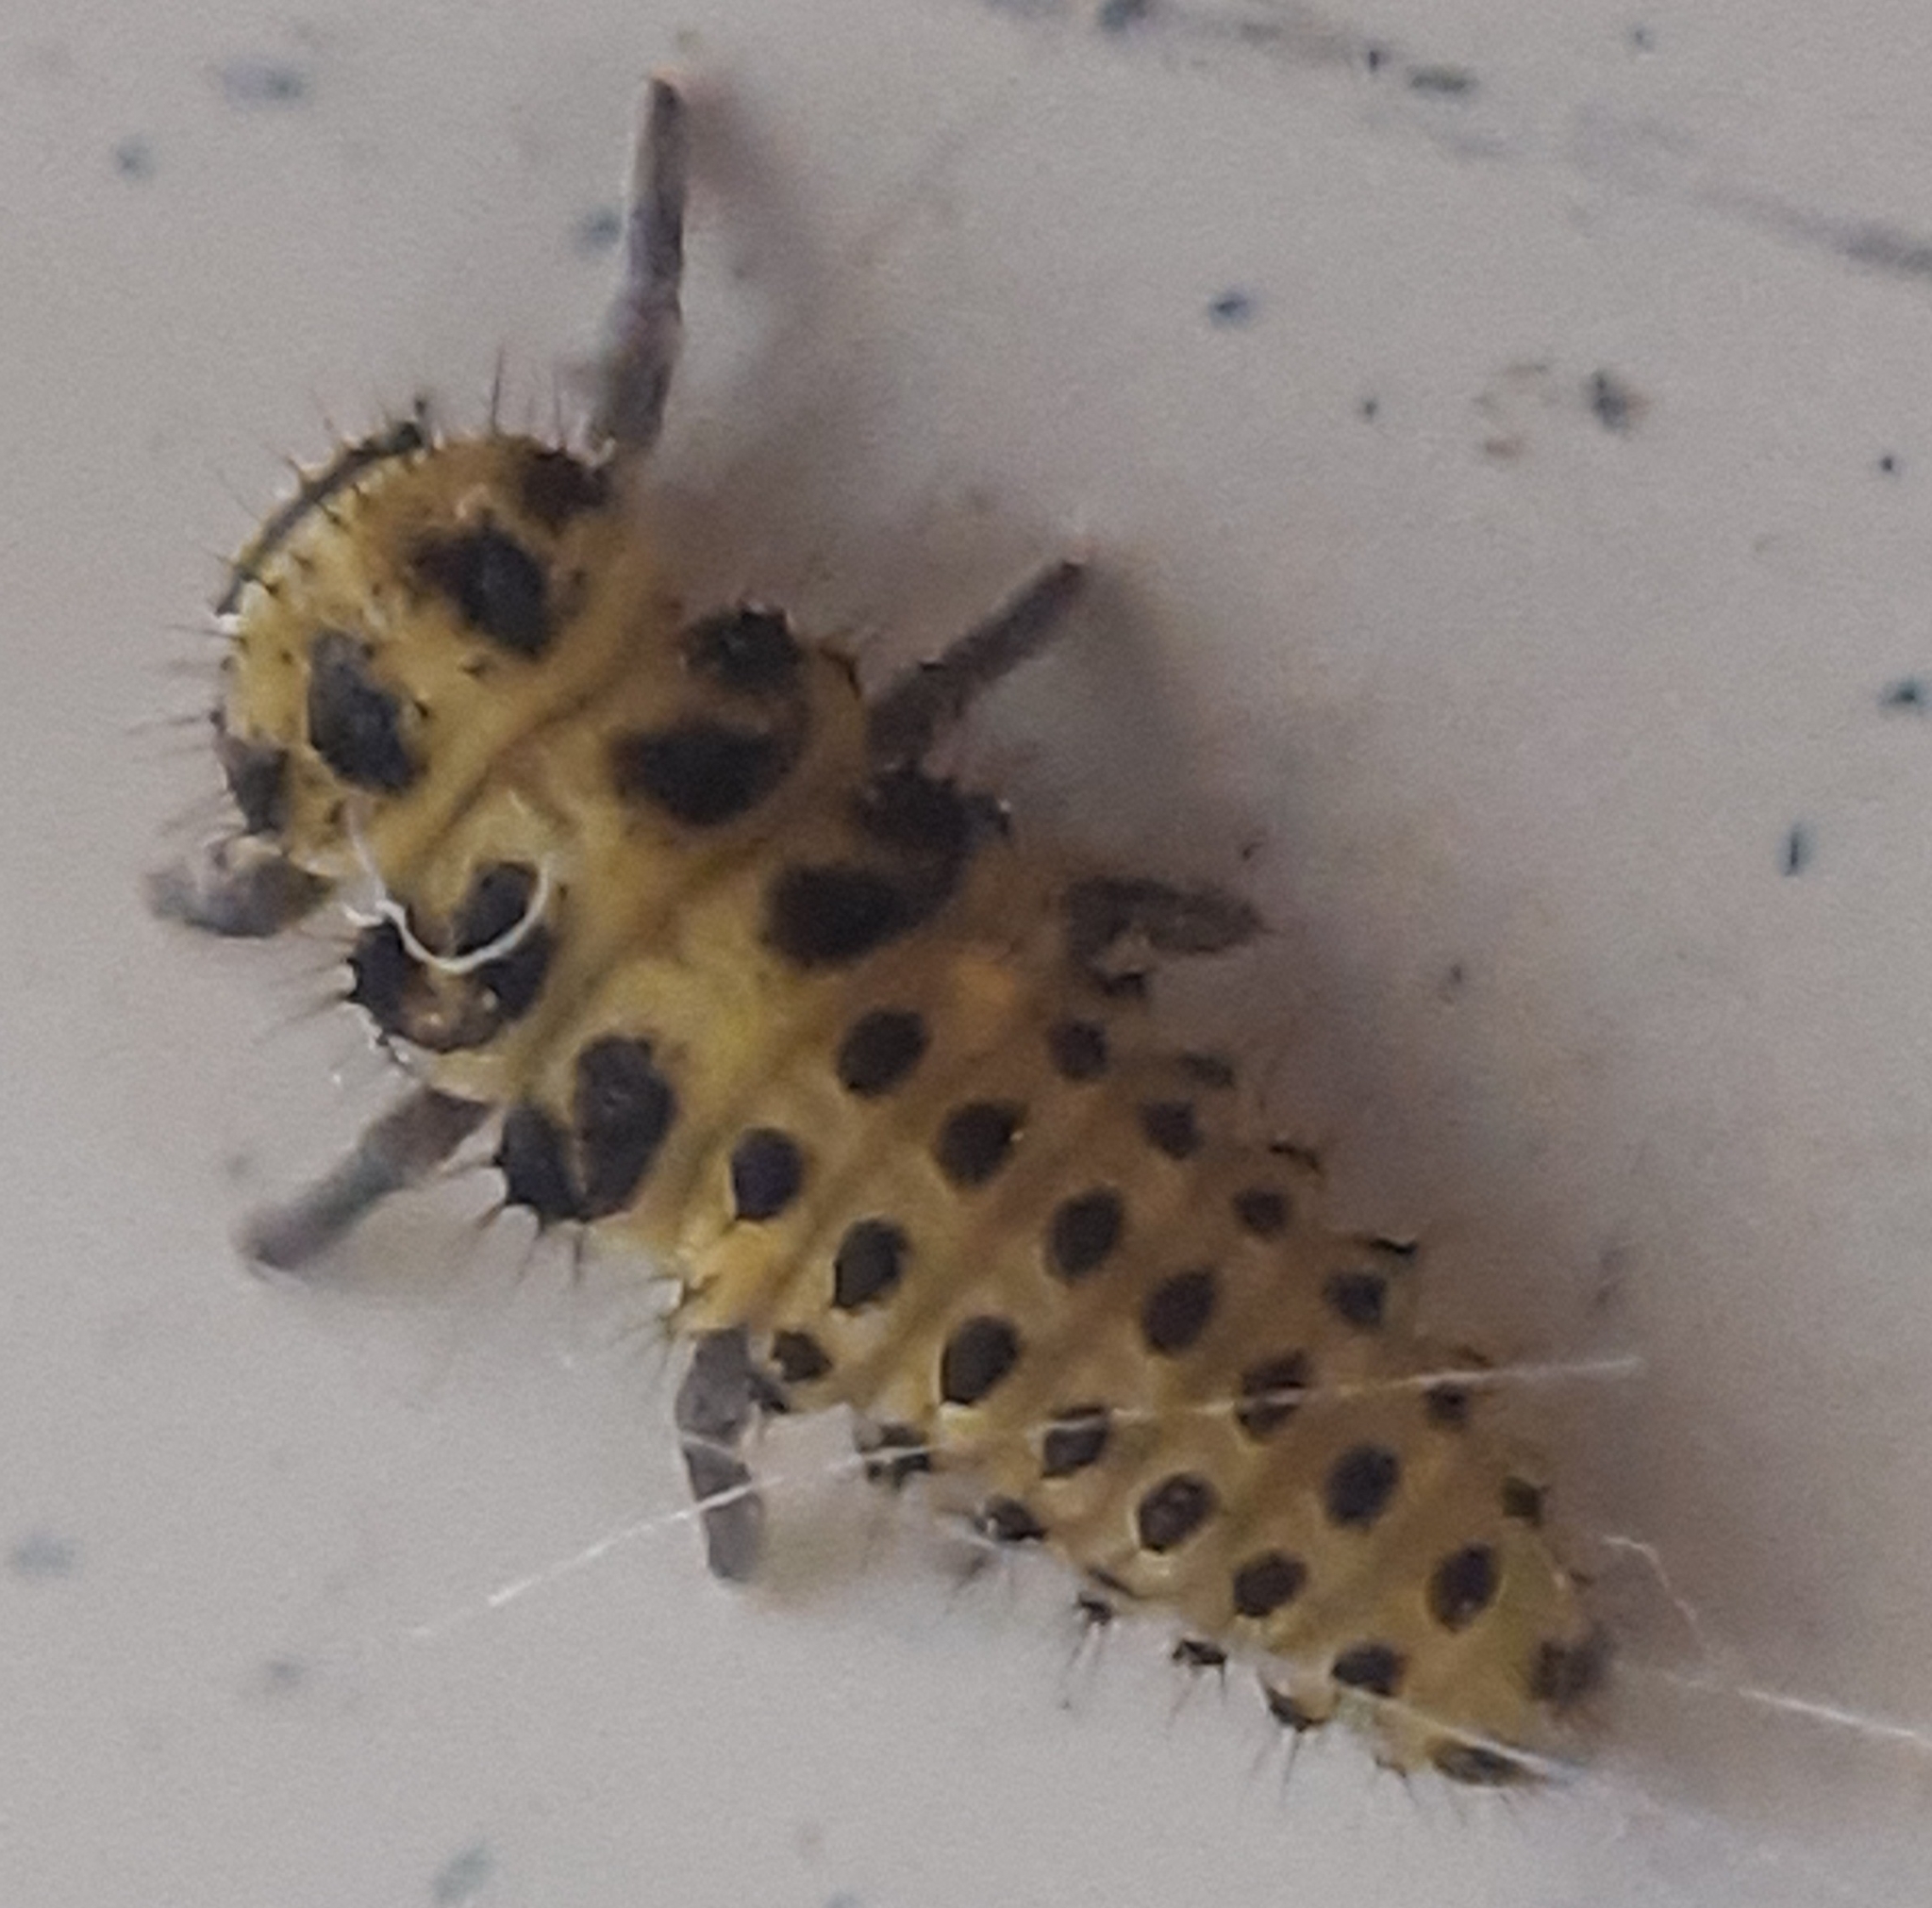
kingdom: Animalia
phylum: Arthropoda
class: Insecta
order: Coleoptera
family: Coccinellidae
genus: Psyllobora
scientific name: Psyllobora vigintiduopunctata
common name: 22-spot ladybird
